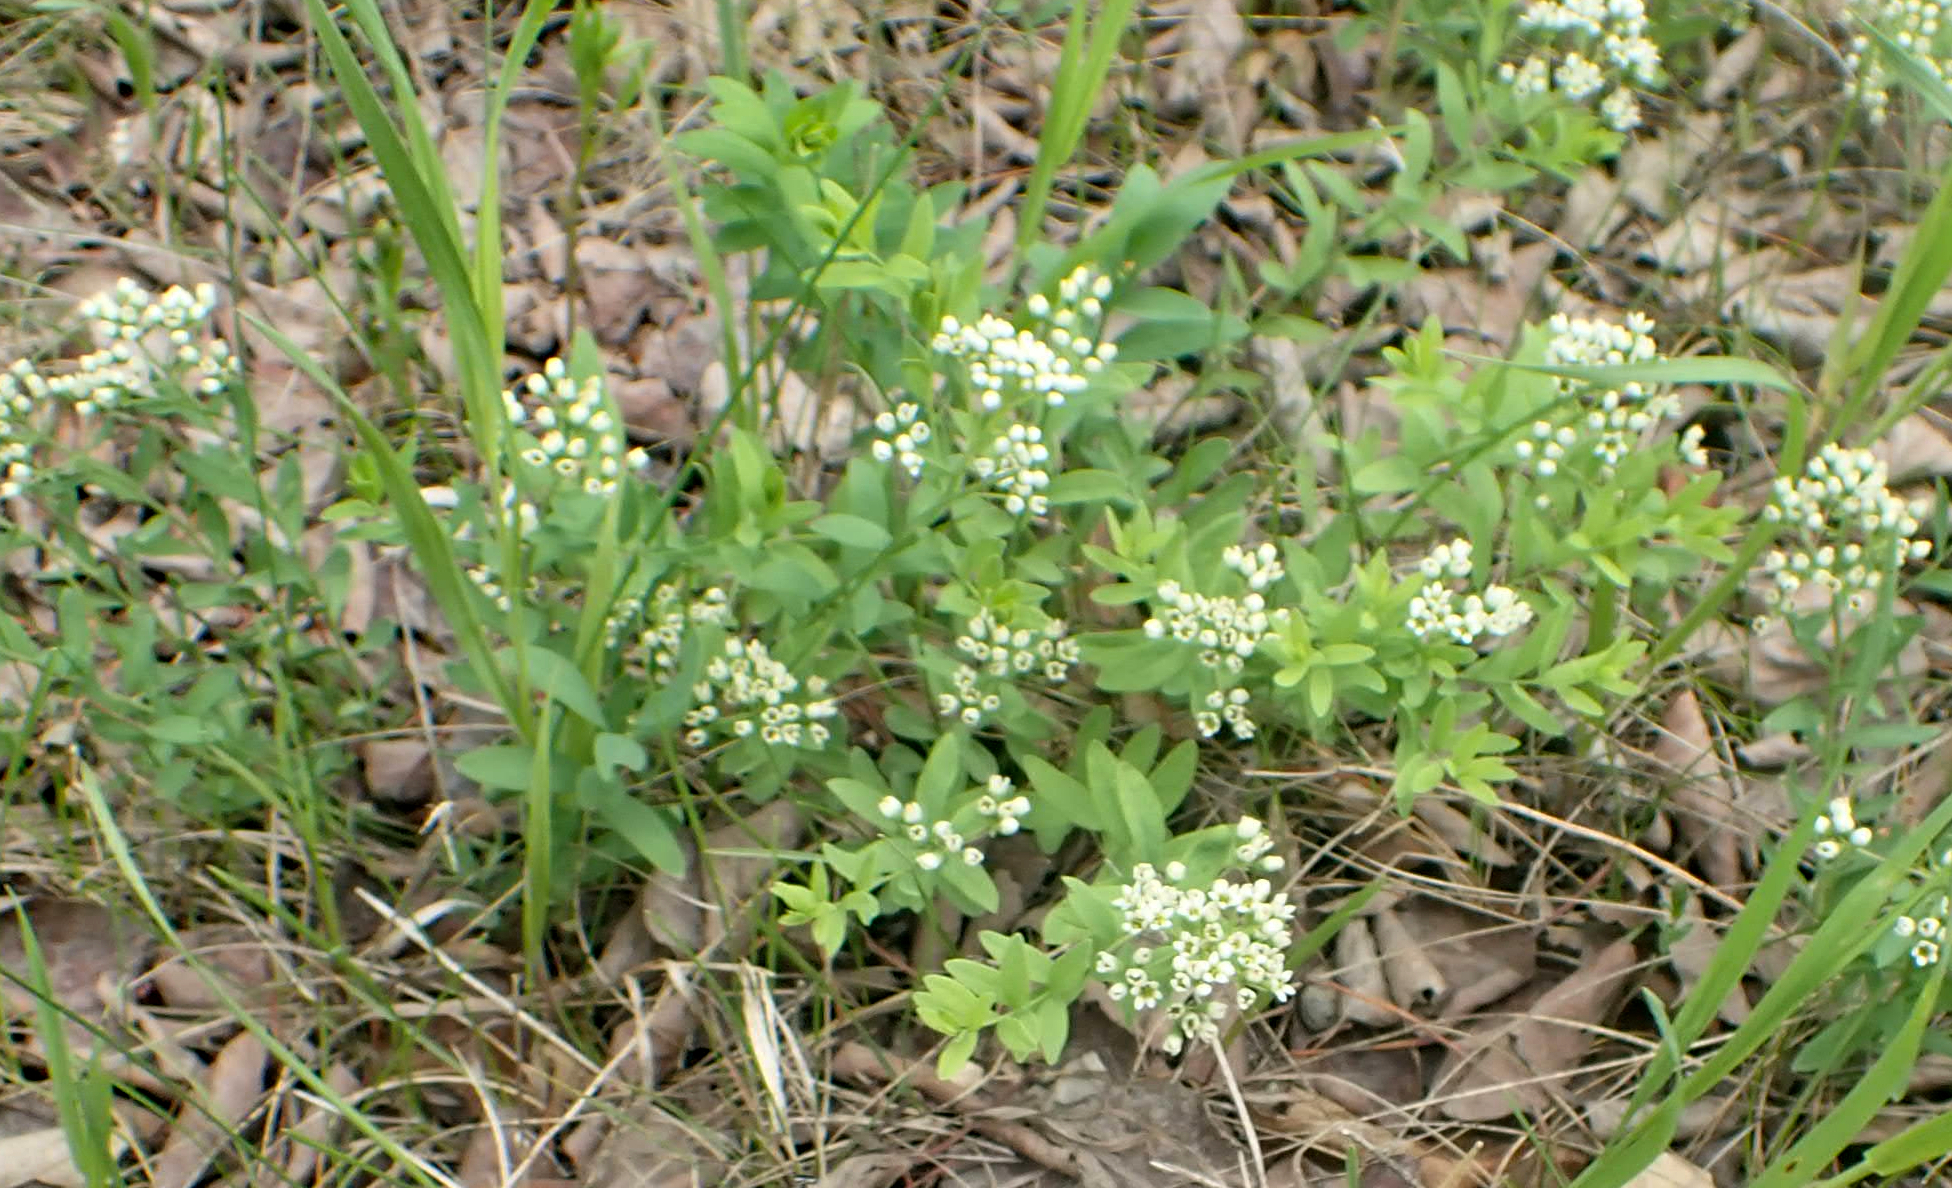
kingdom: Plantae
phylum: Tracheophyta
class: Magnoliopsida
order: Santalales
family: Comandraceae
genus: Comandra
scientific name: Comandra umbellata
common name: Bastard toadflax
